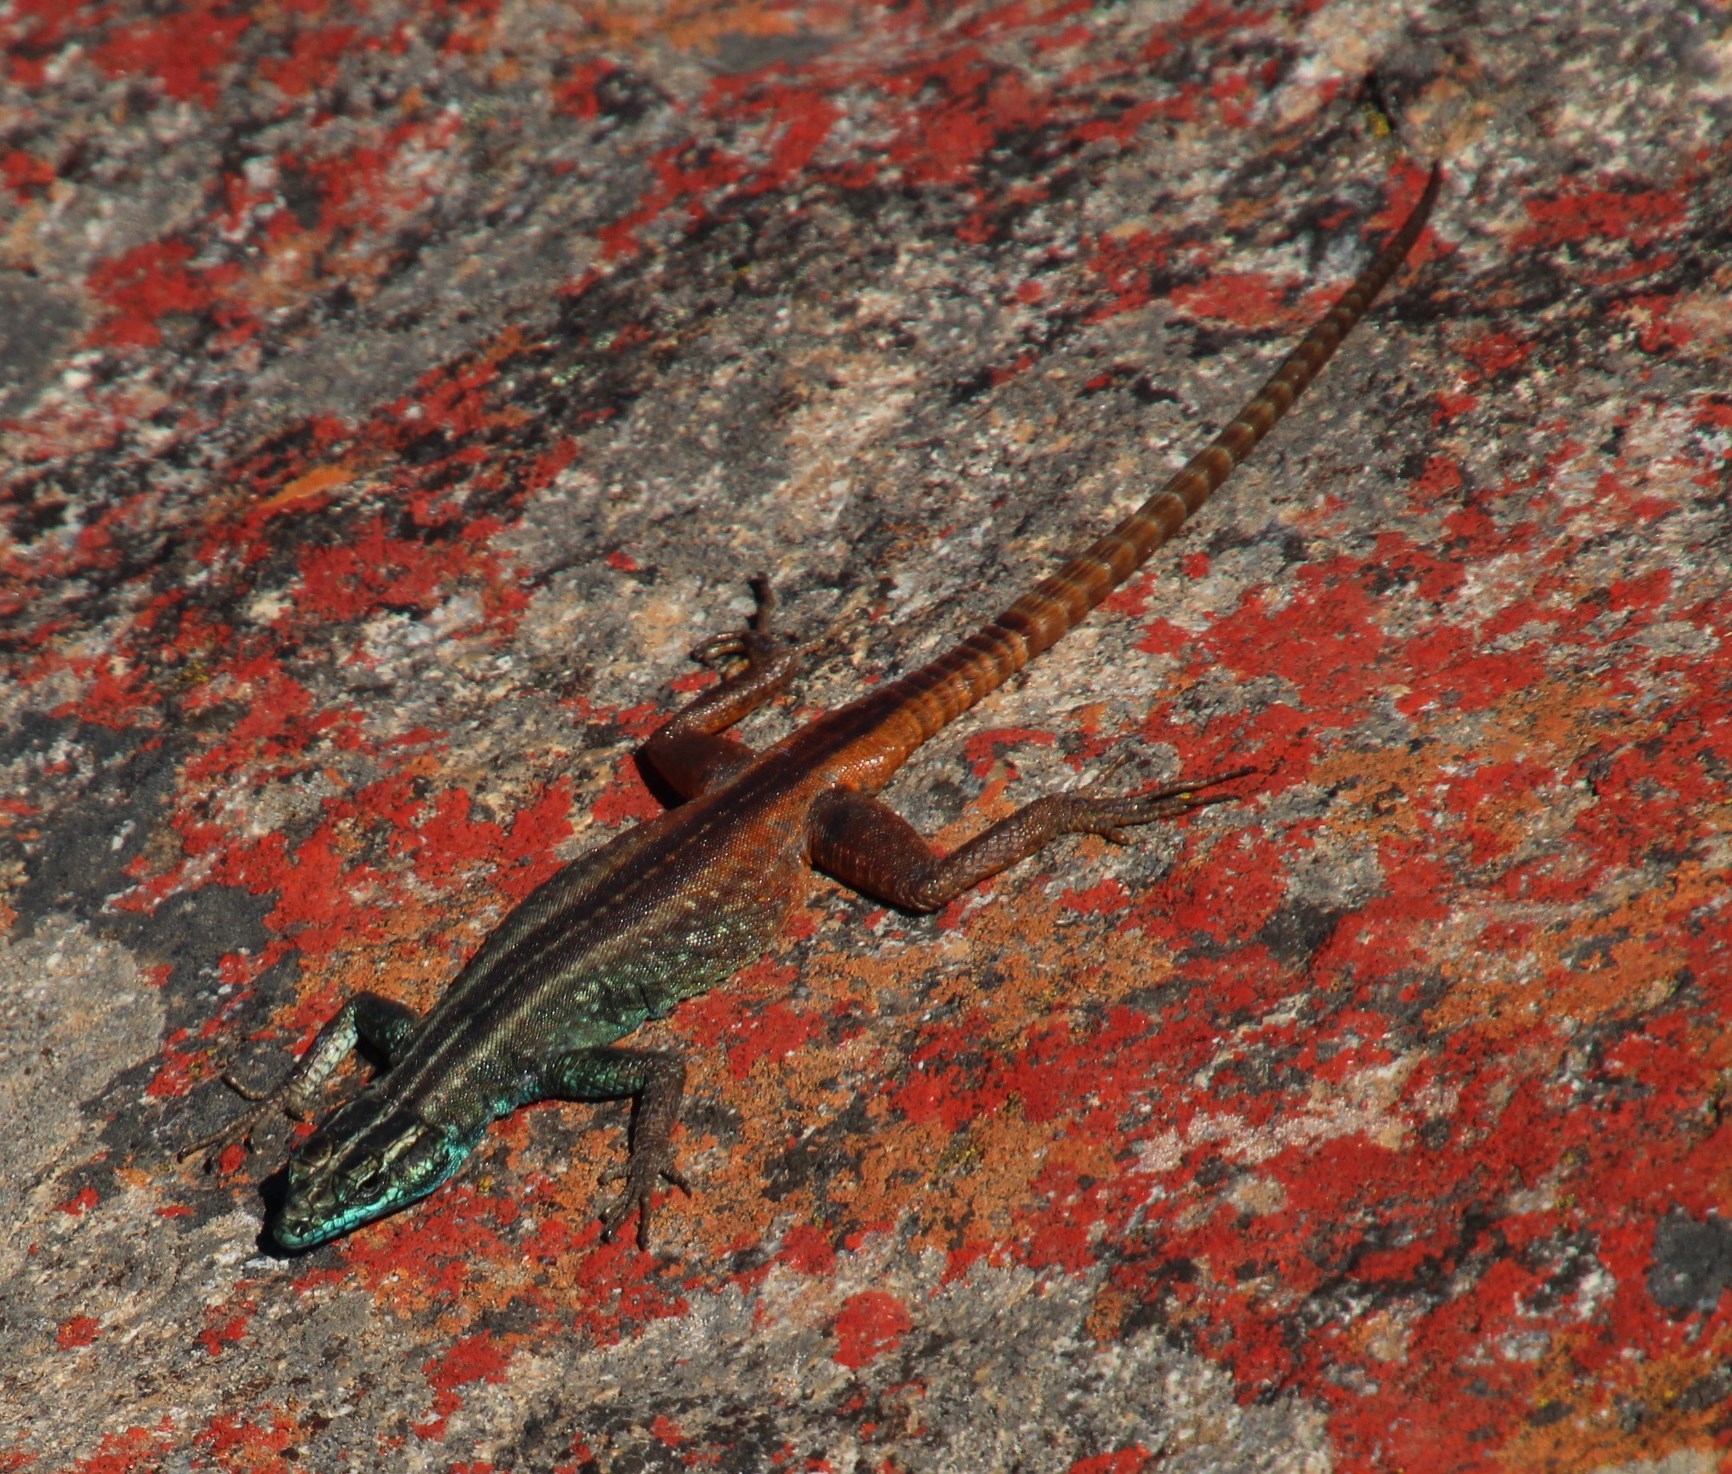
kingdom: Animalia
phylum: Chordata
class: Squamata
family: Cordylidae
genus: Platysaurus
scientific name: Platysaurus capensis
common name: Namaqua flat lizard
